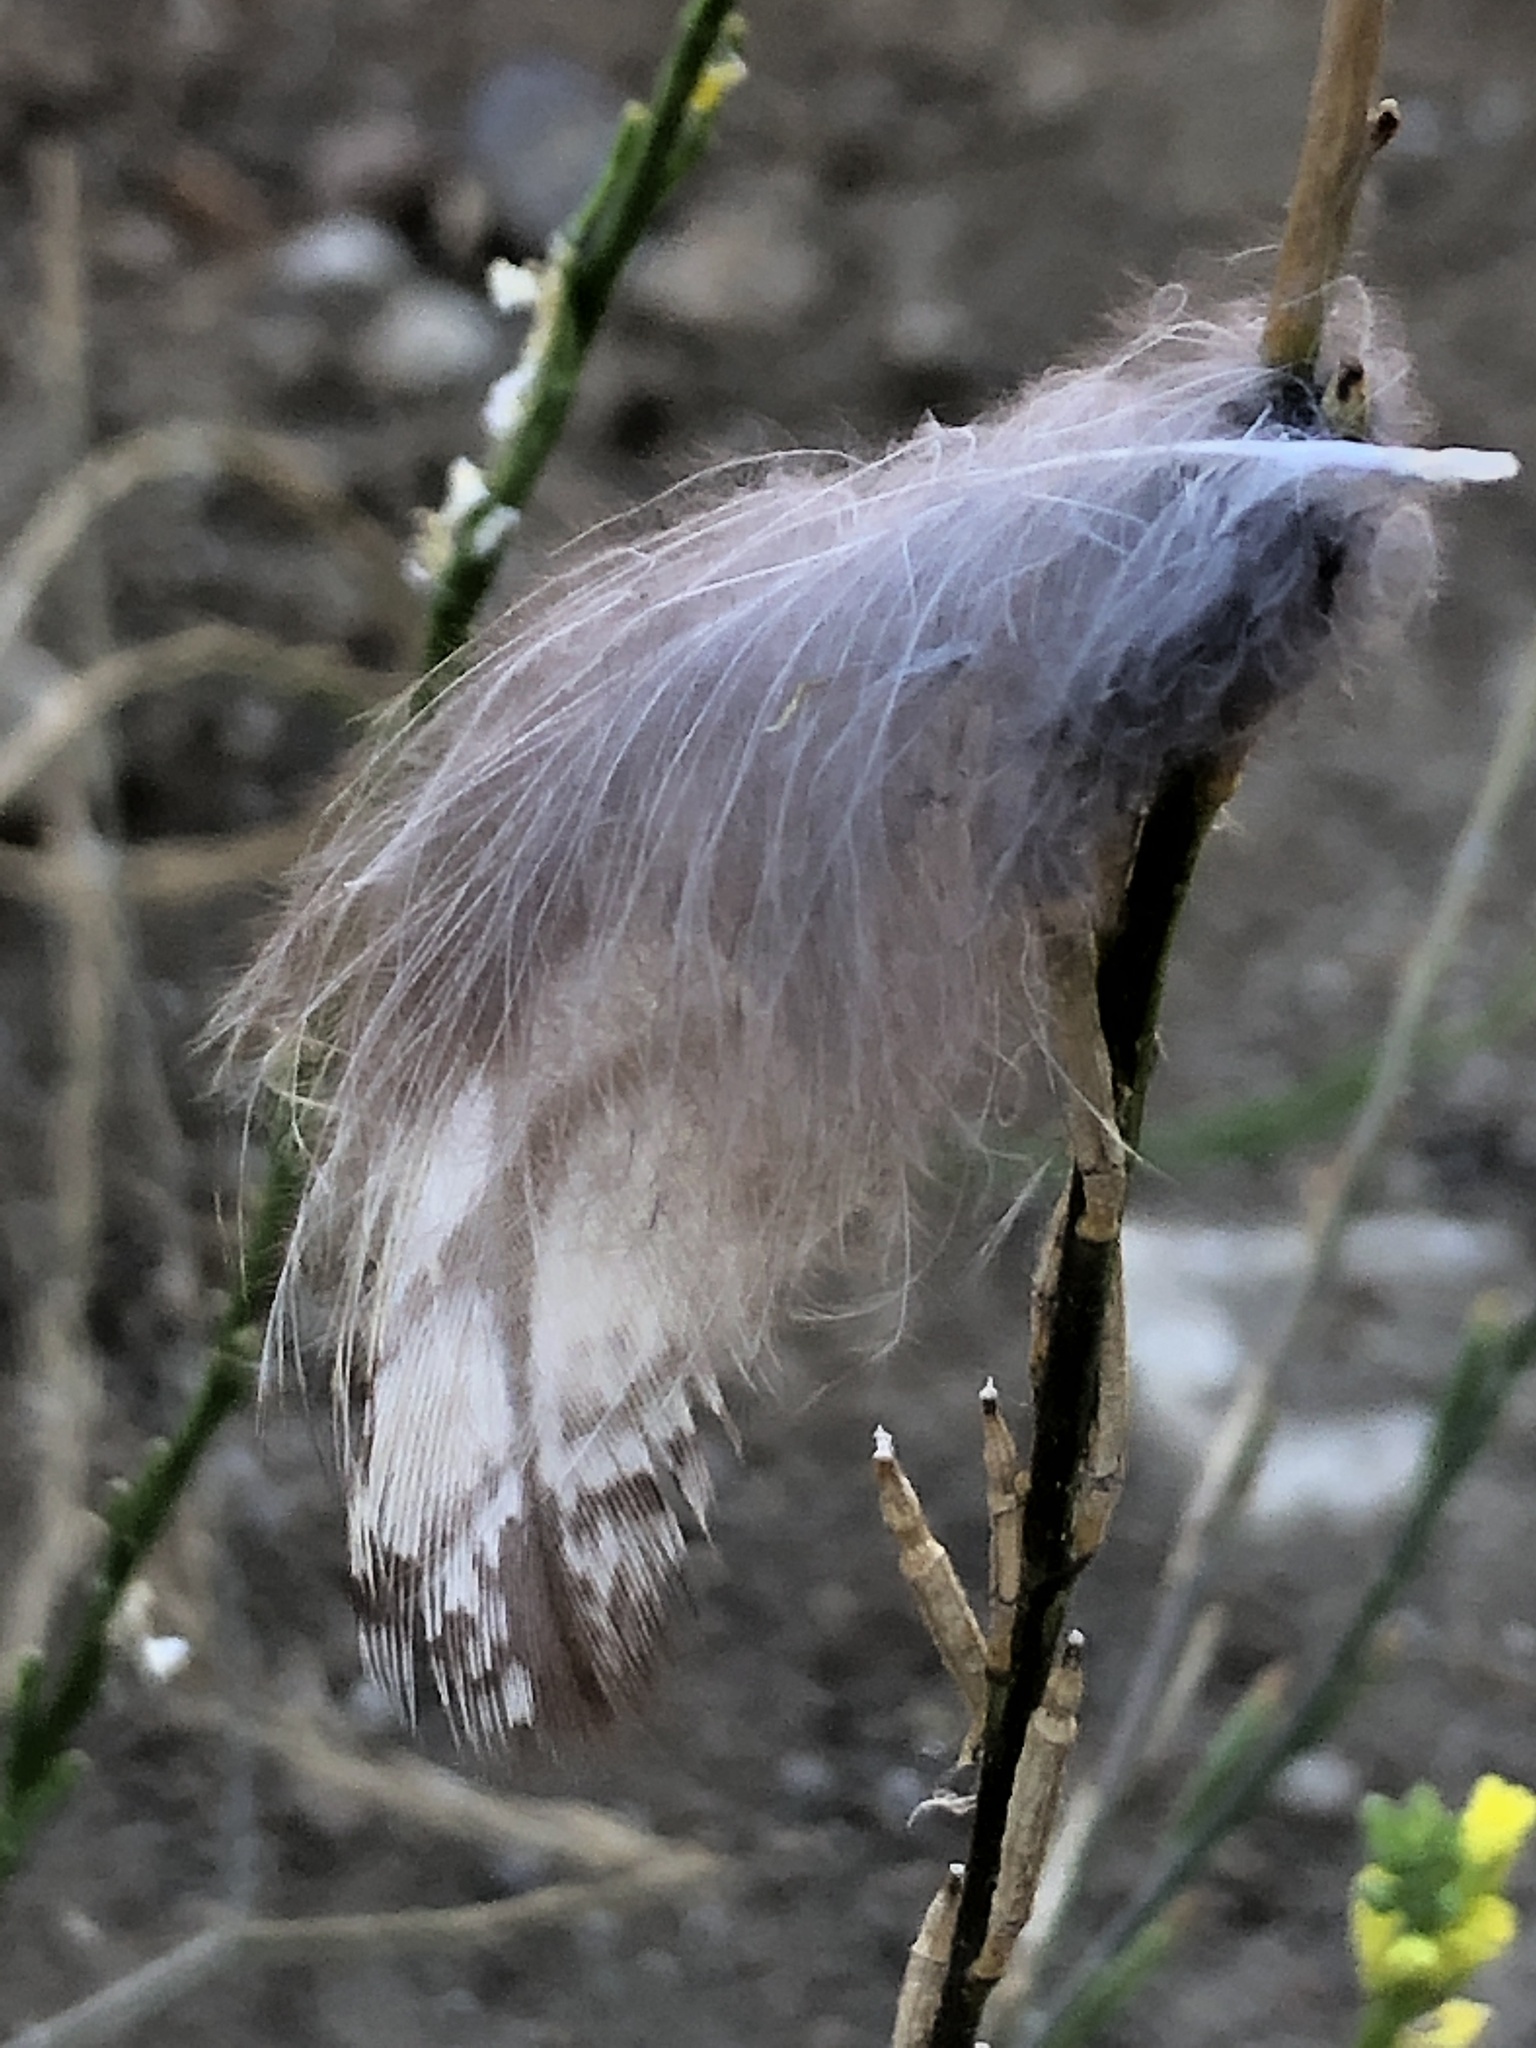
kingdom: Animalia
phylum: Chordata
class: Aves
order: Strigiformes
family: Strigidae
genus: Bubo
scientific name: Bubo virginianus
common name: Great horned owl
